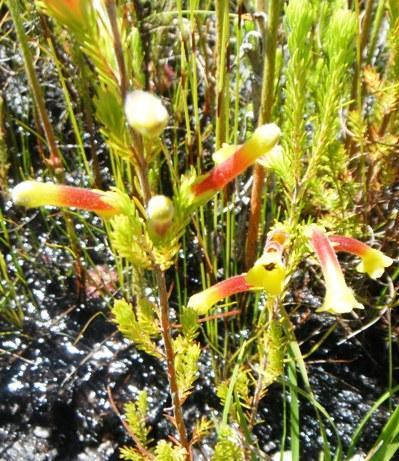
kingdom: Plantae
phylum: Tracheophyta
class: Magnoliopsida
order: Ericales
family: Ericaceae
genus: Erica
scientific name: Erica macowanii
